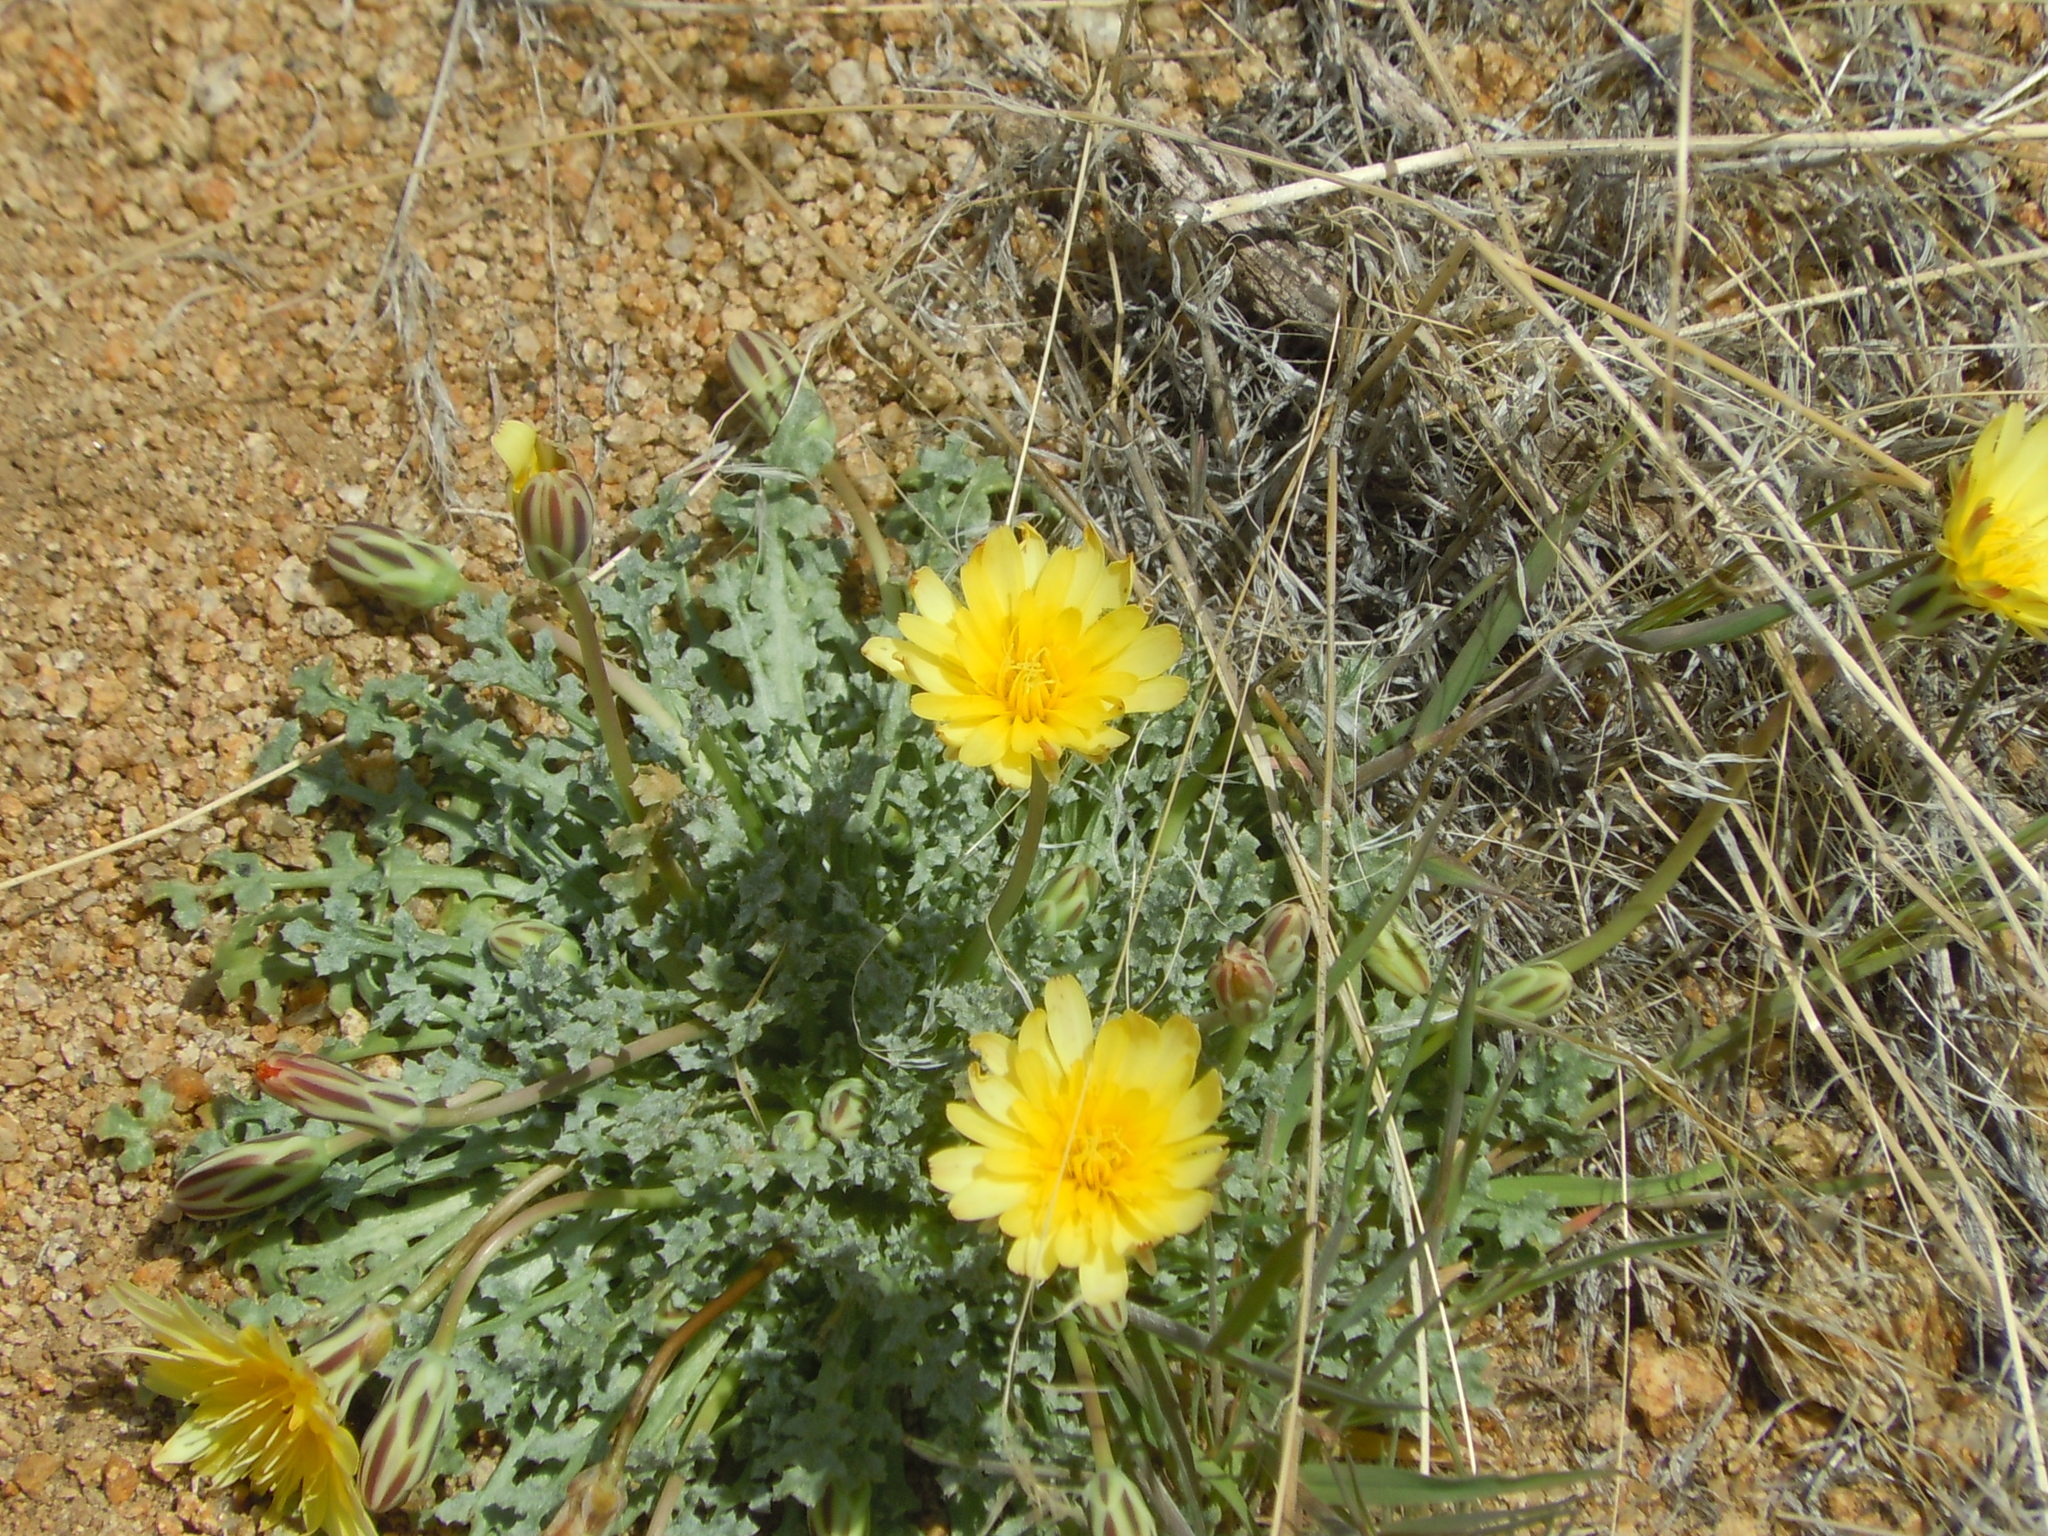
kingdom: Plantae
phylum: Tracheophyta
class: Magnoliopsida
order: Asterales
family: Asteraceae
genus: Anisocoma
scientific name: Anisocoma acaulis
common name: Scalebud
